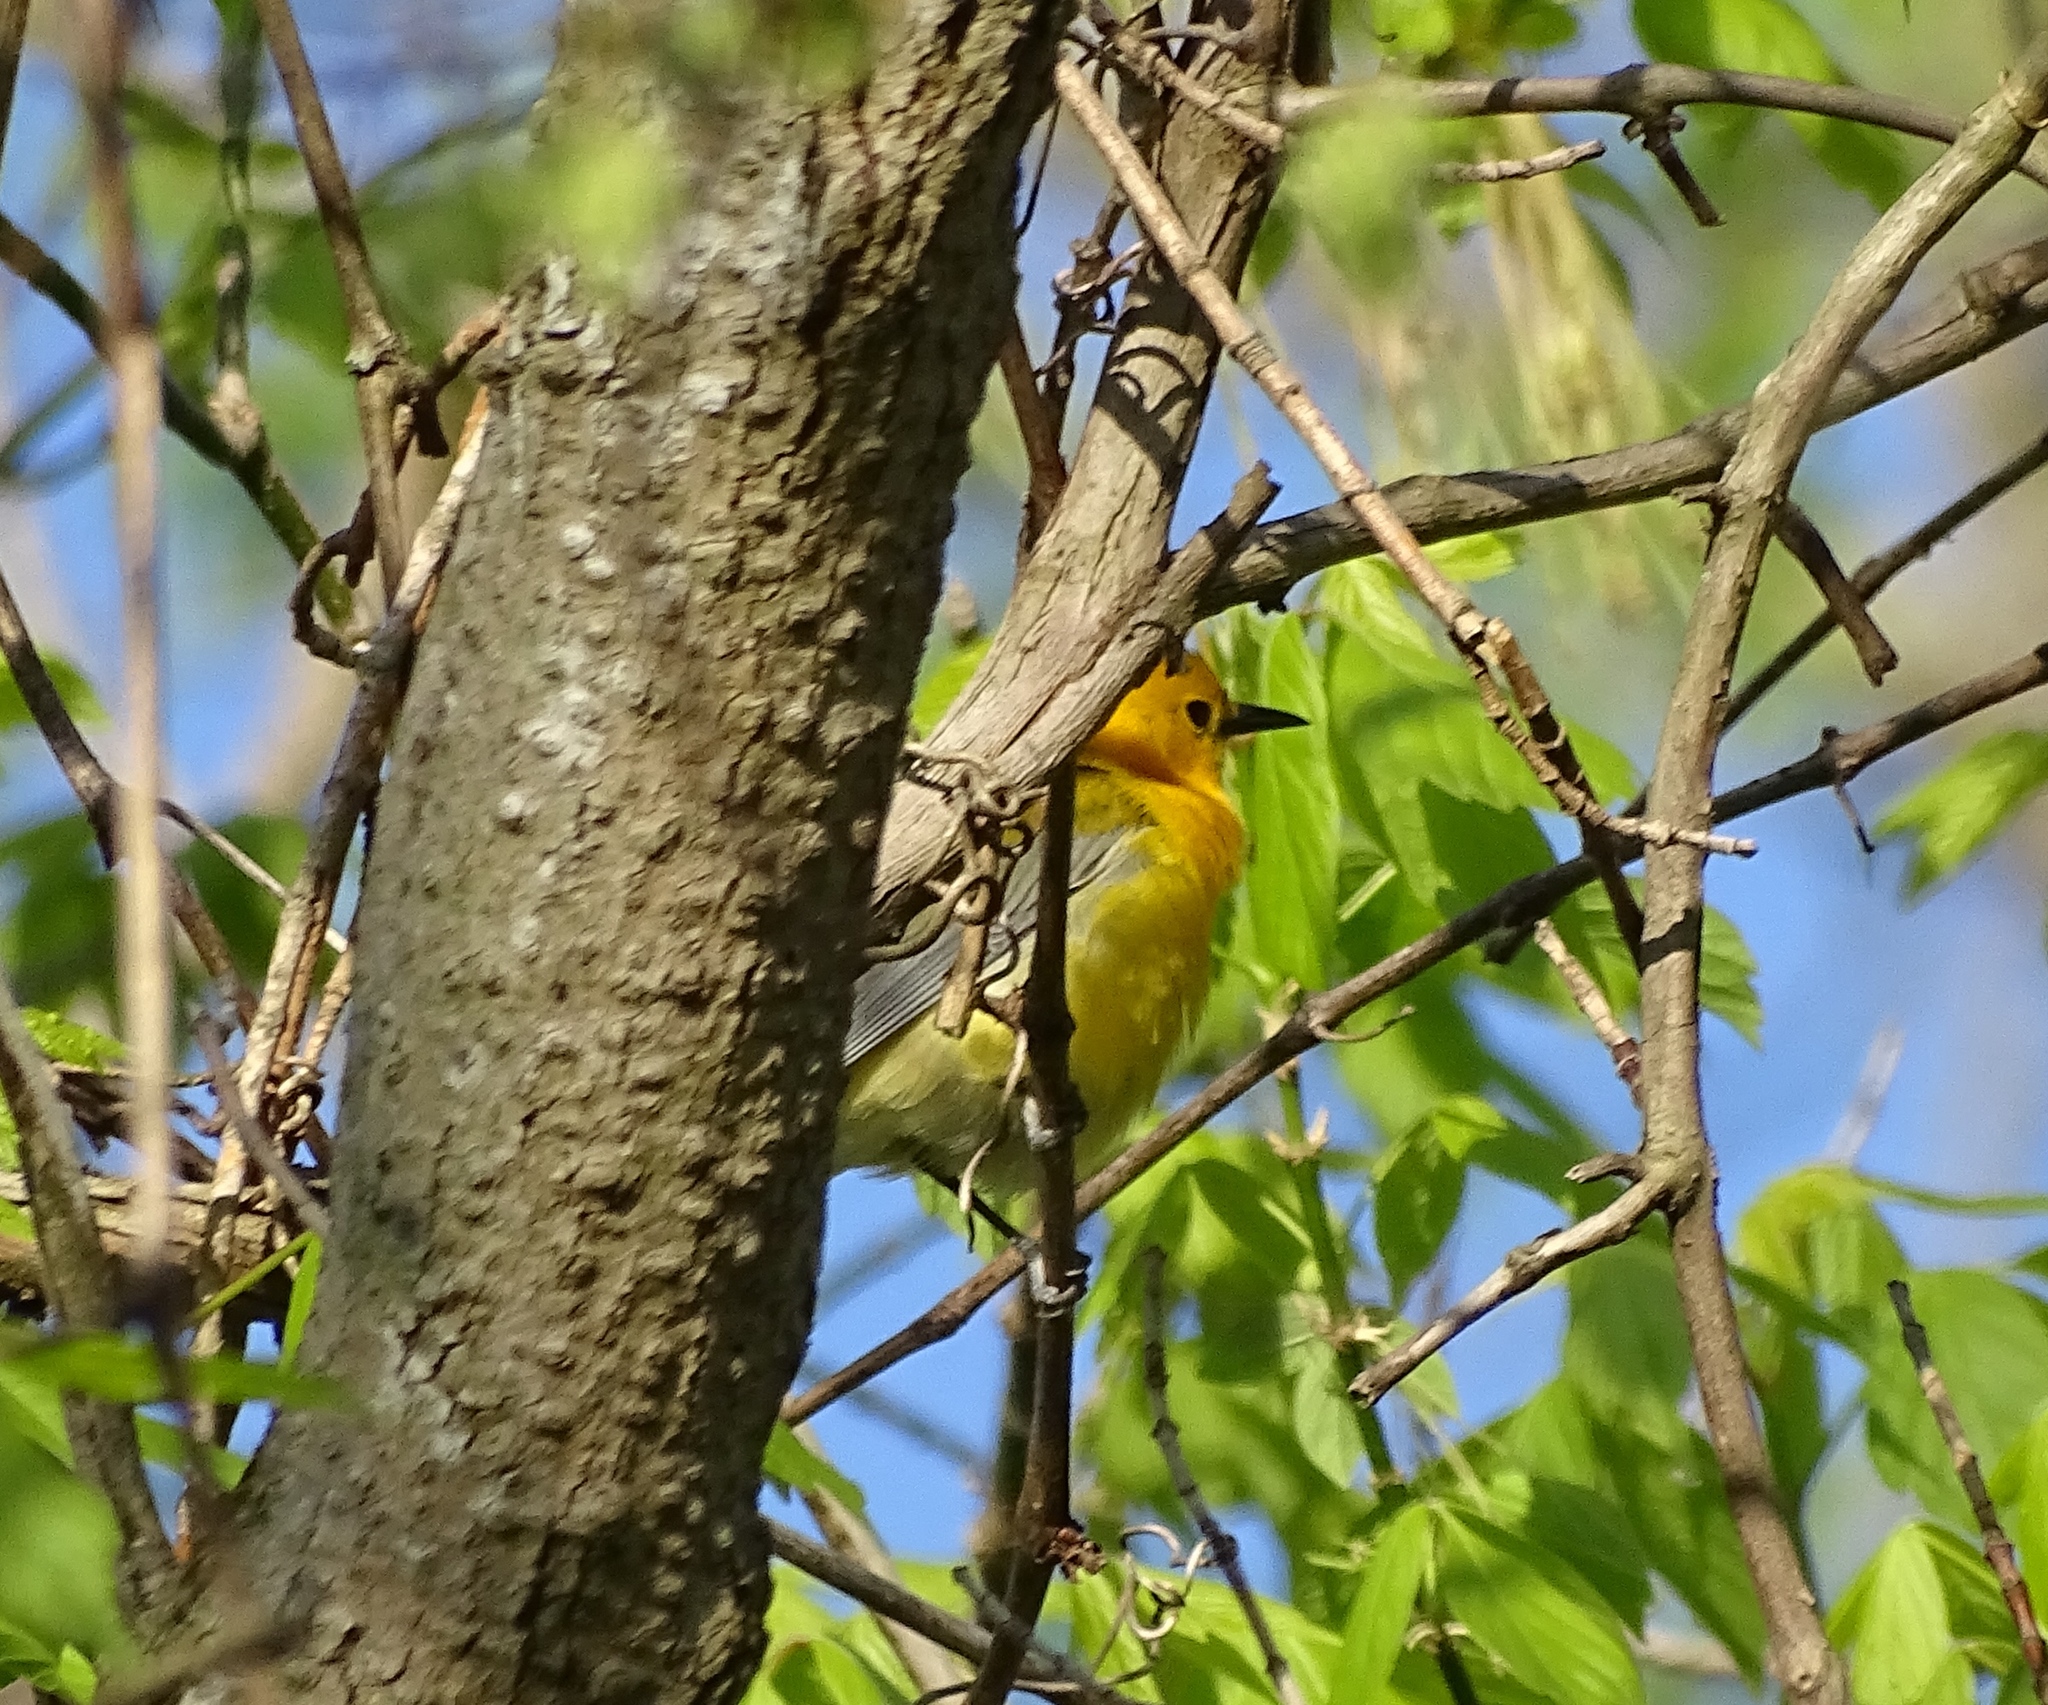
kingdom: Animalia
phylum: Chordata
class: Aves
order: Passeriformes
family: Parulidae
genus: Protonotaria
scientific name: Protonotaria citrea
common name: Prothonotary warbler
